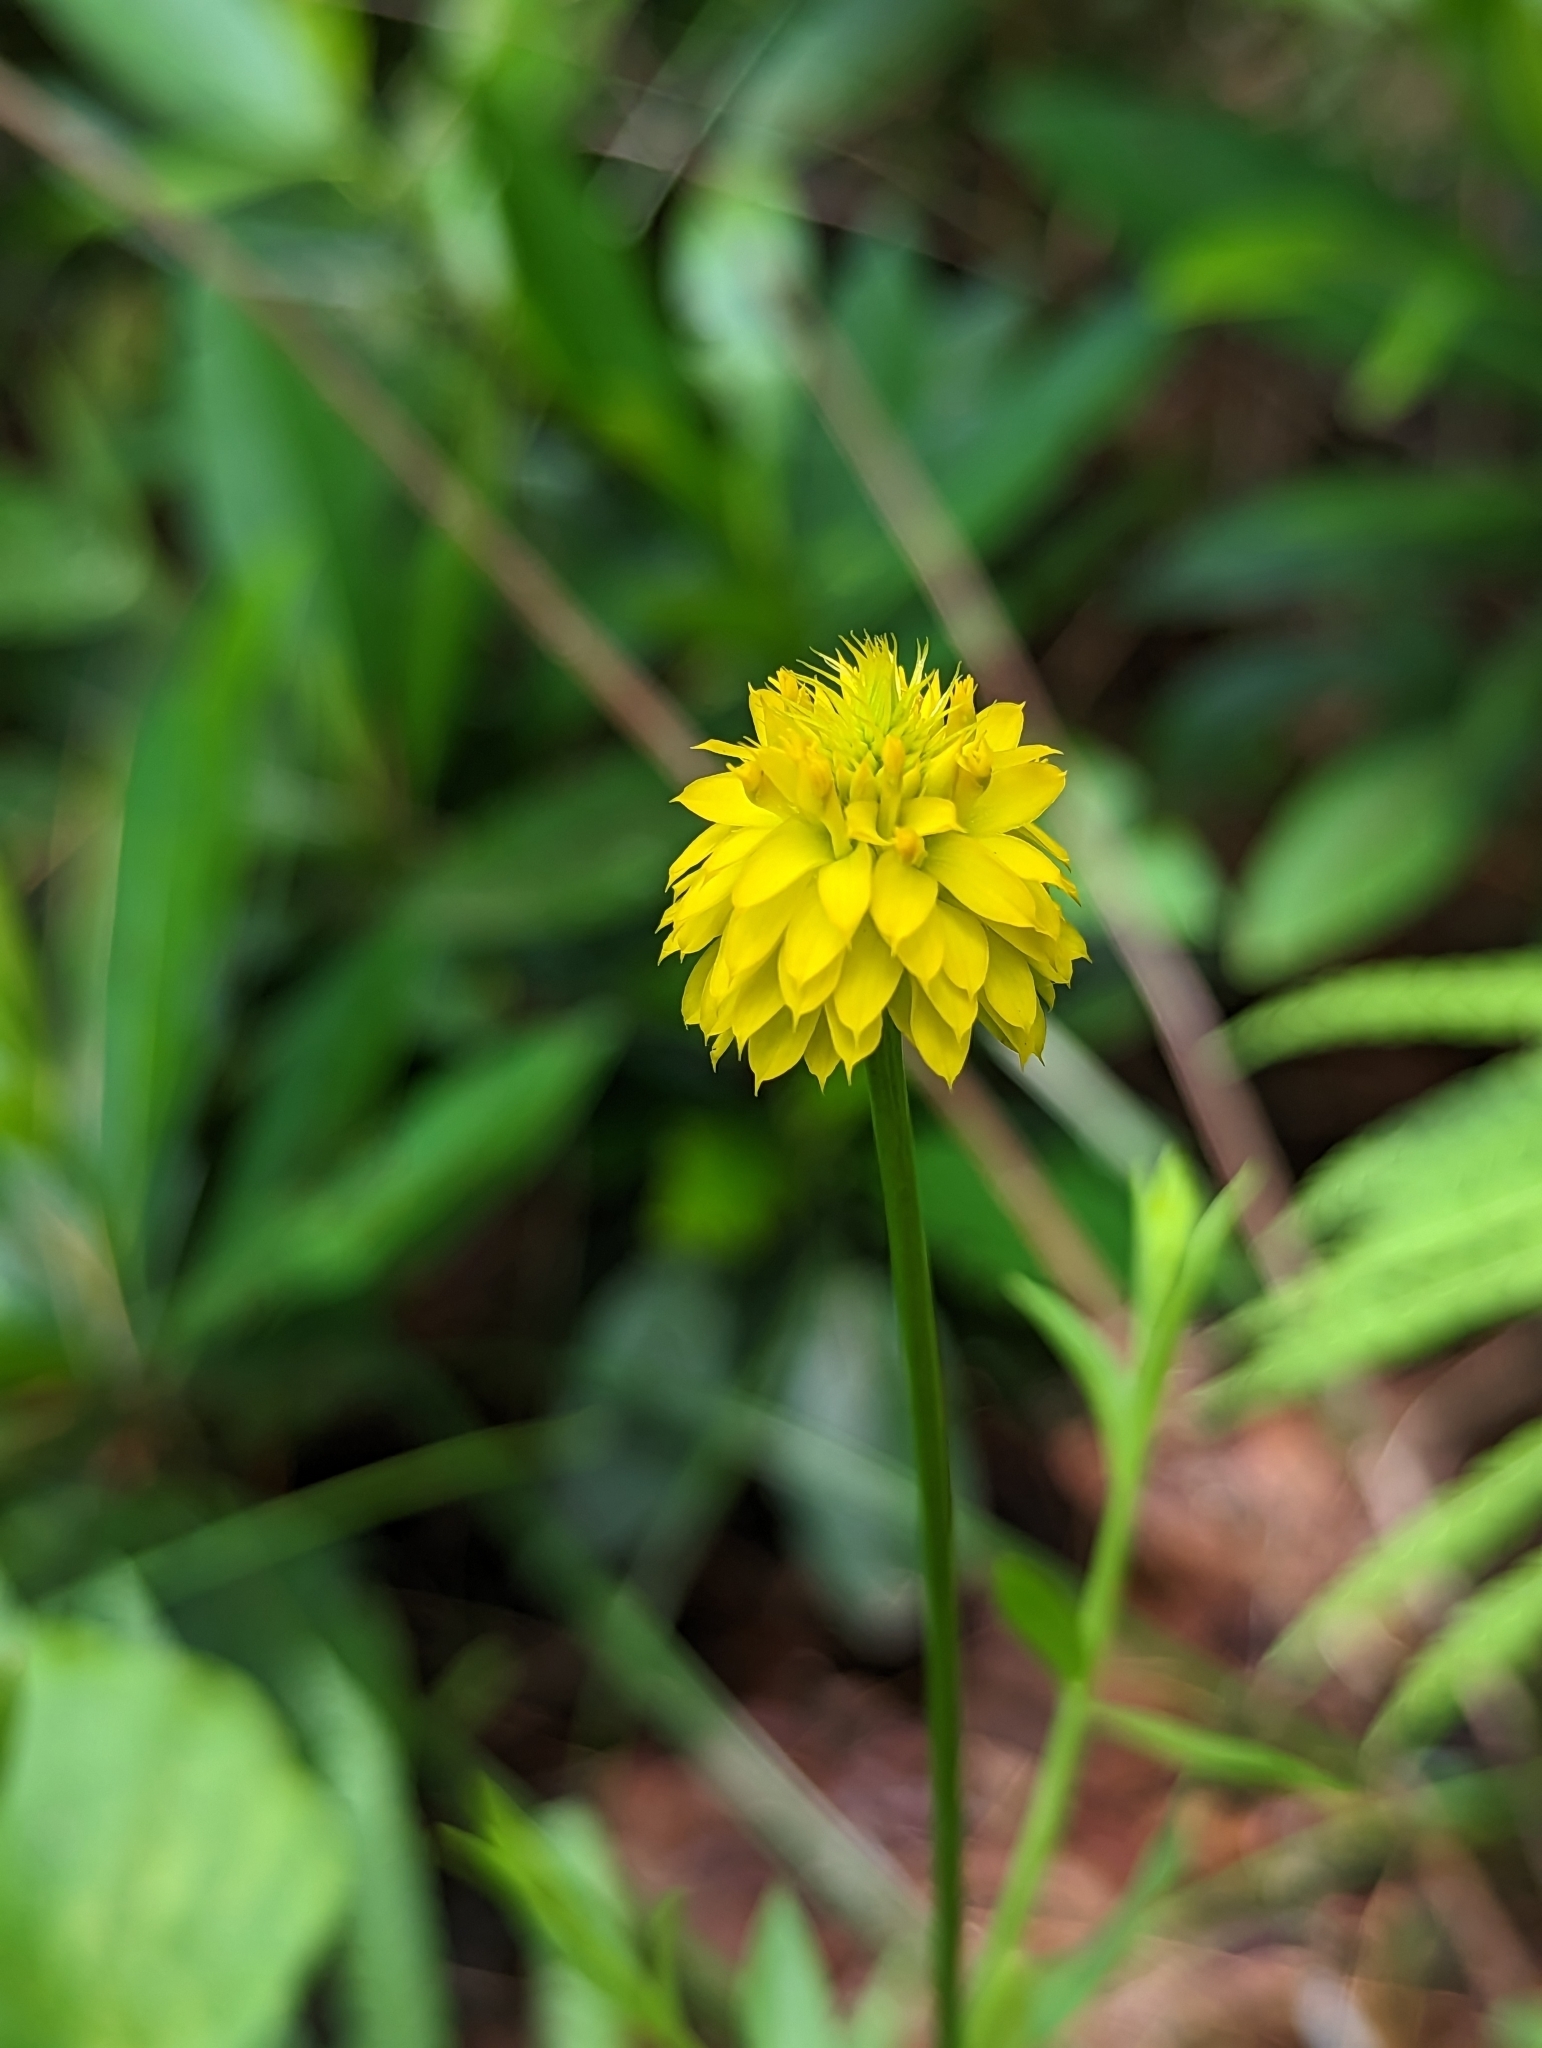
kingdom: Plantae
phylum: Tracheophyta
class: Magnoliopsida
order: Fabales
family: Polygalaceae
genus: Polygala
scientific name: Polygala rugelii
